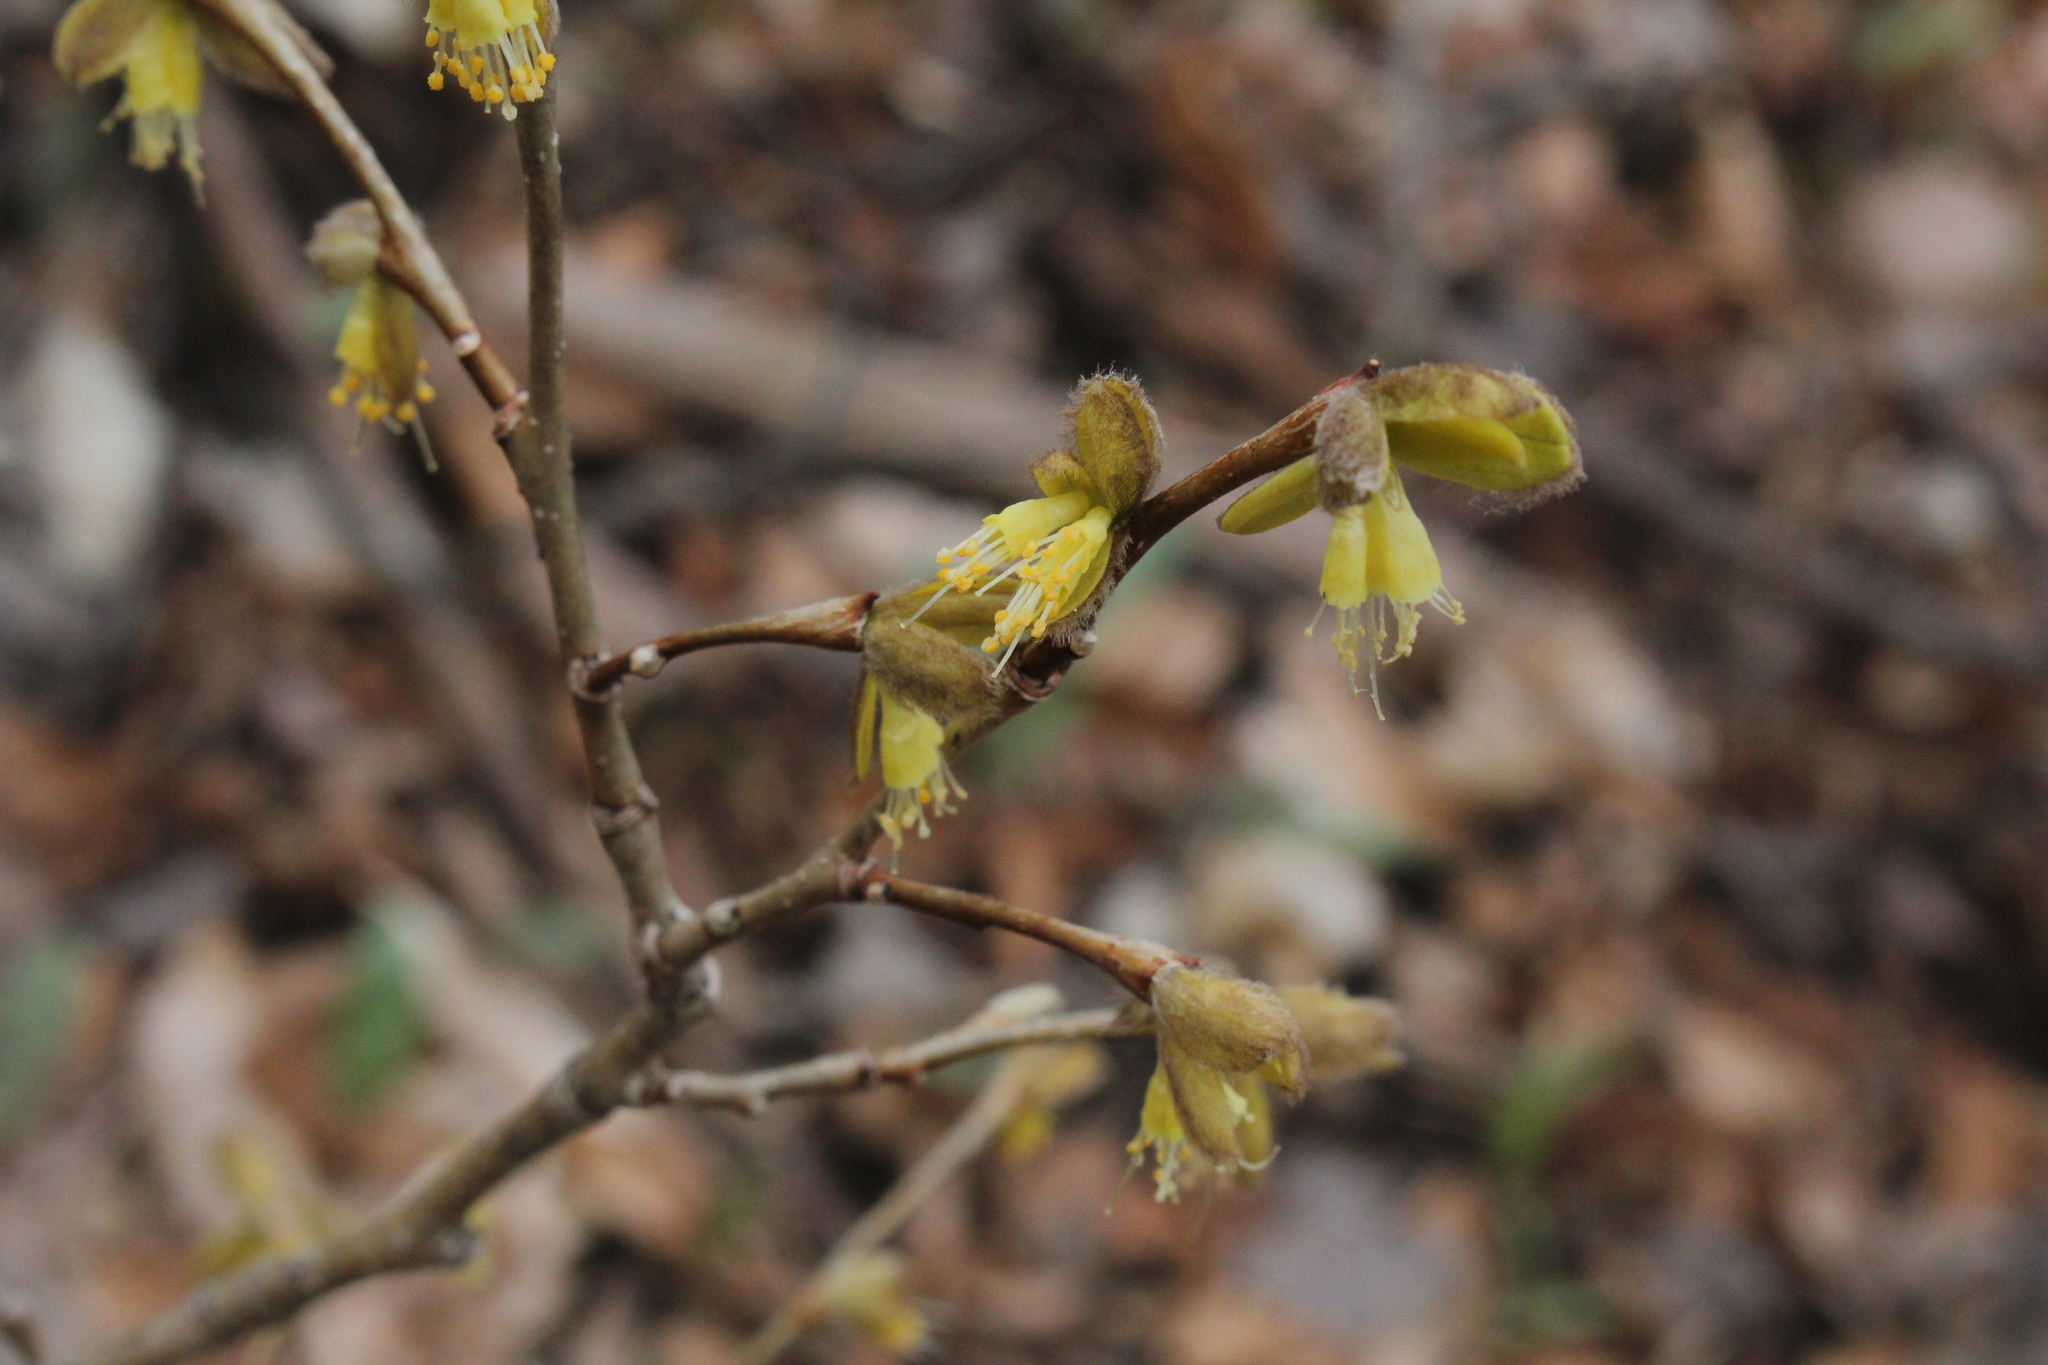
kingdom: Plantae
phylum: Tracheophyta
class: Magnoliopsida
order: Malvales
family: Thymelaeaceae
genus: Dirca
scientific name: Dirca palustris
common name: Leatherwood
